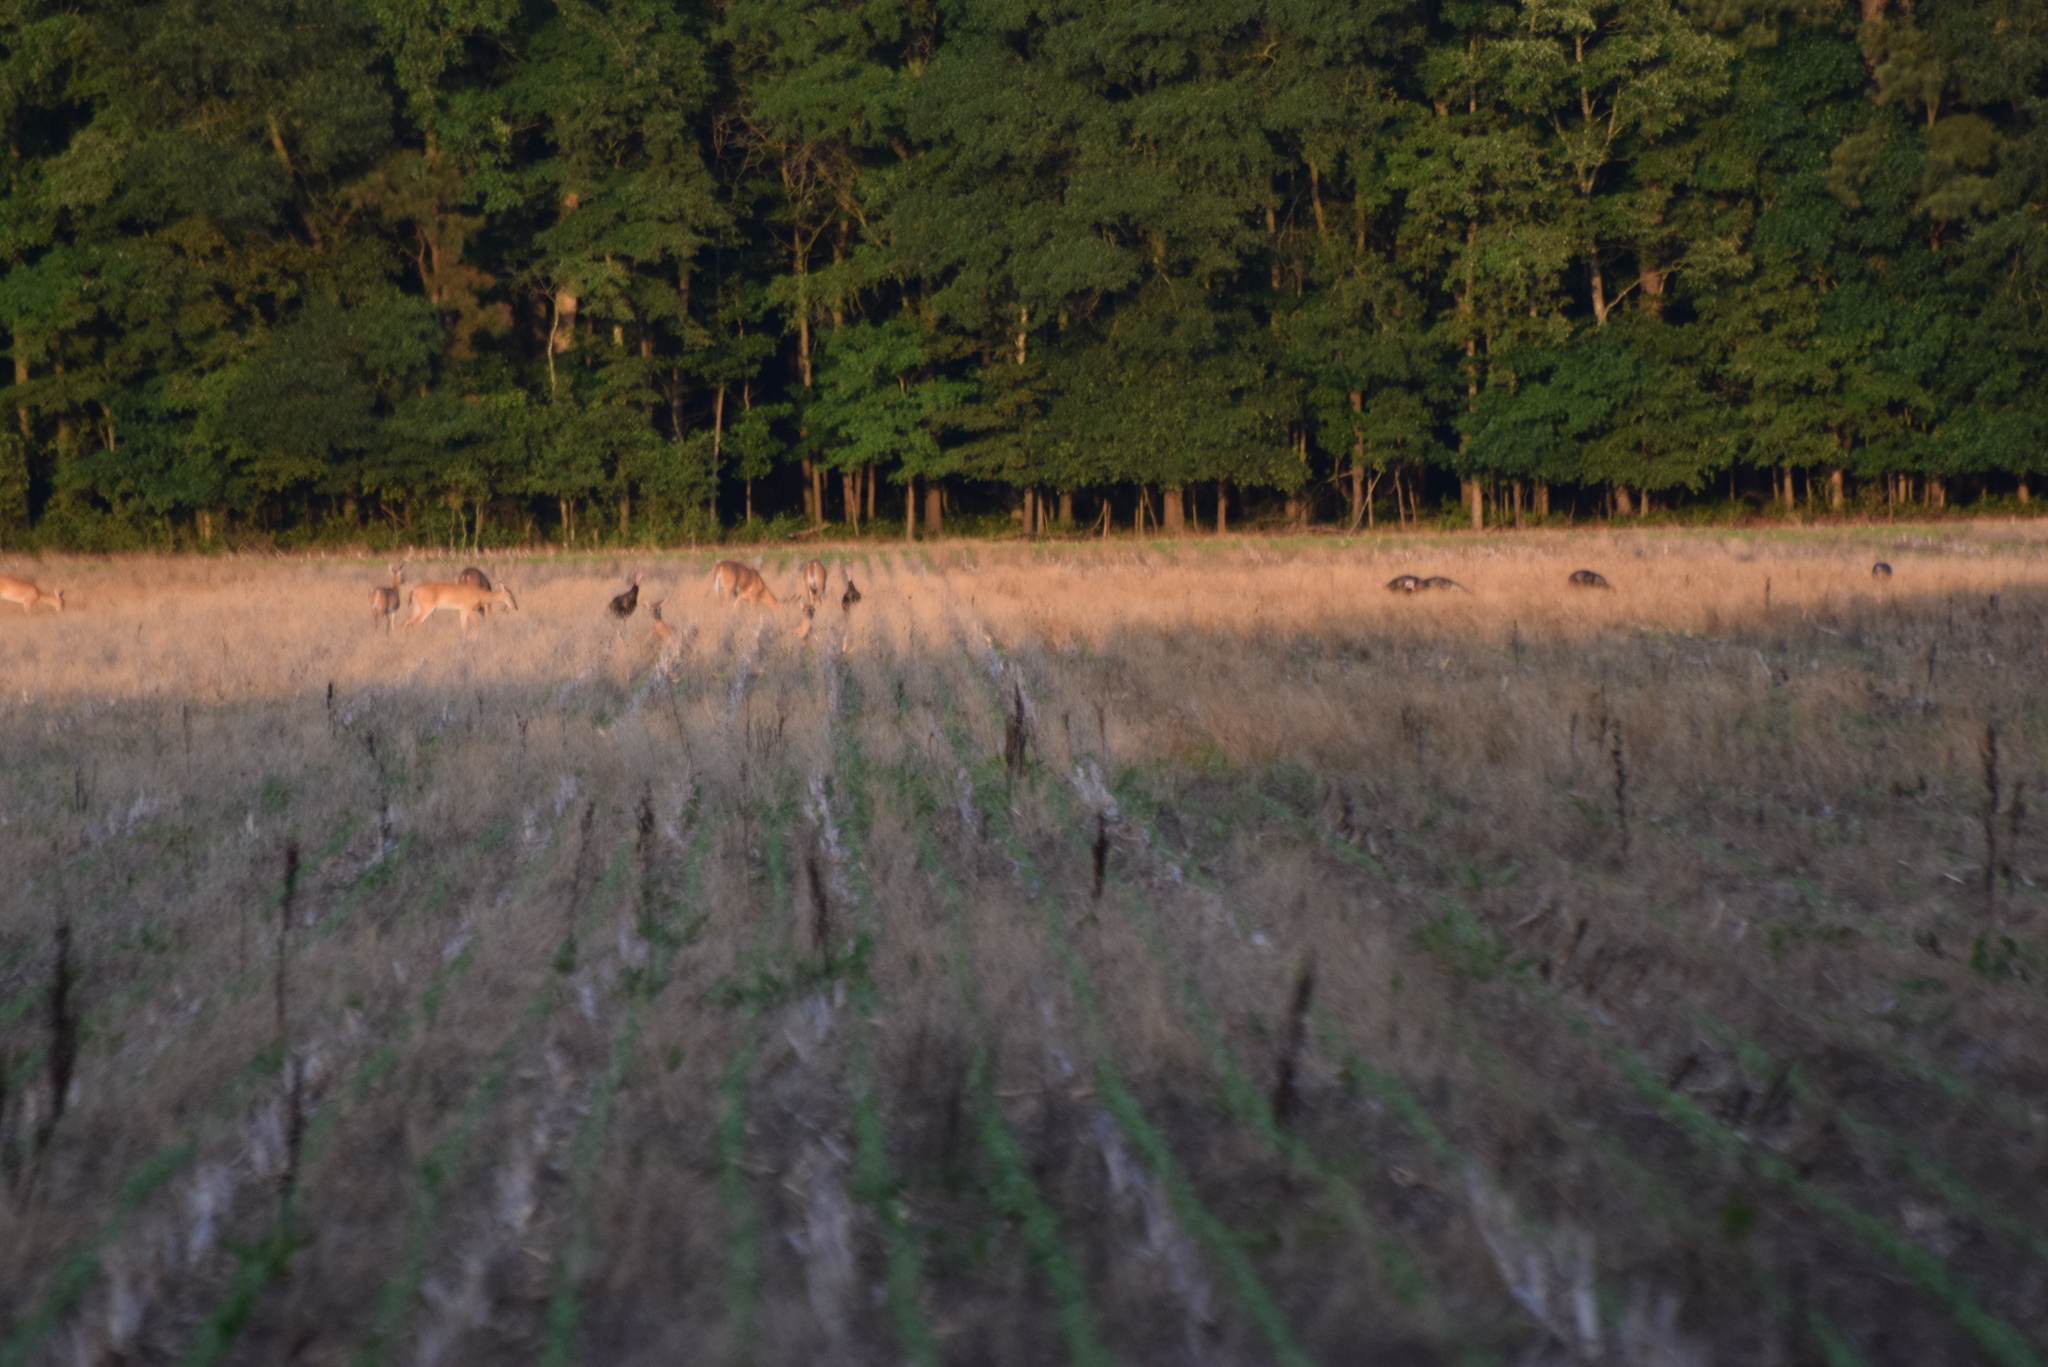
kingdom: Animalia
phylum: Chordata
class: Aves
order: Galliformes
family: Phasianidae
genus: Meleagris
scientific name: Meleagris gallopavo
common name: Wild turkey
